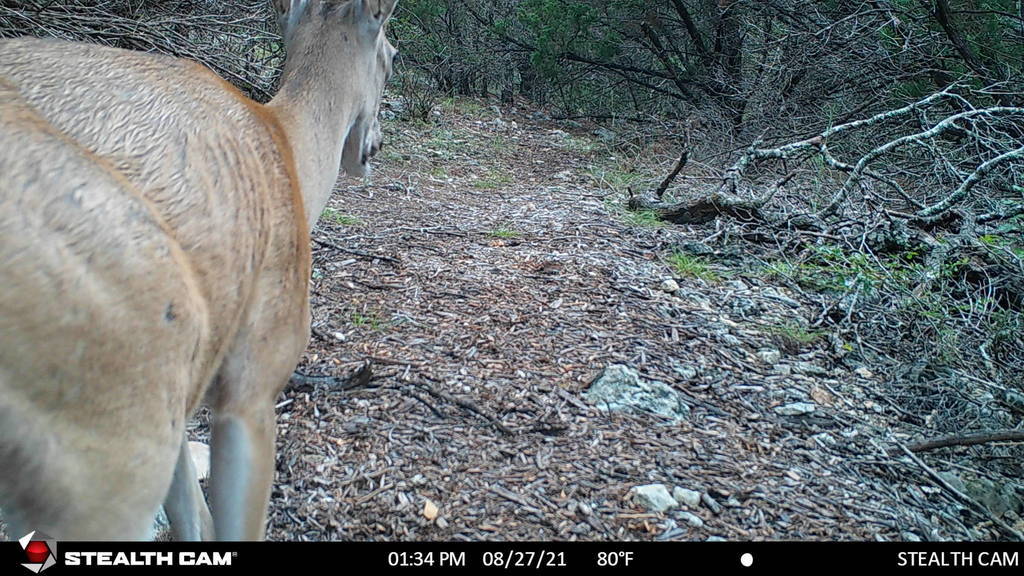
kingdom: Animalia
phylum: Chordata
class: Mammalia
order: Artiodactyla
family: Cervidae
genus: Odocoileus
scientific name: Odocoileus virginianus
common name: White-tailed deer
